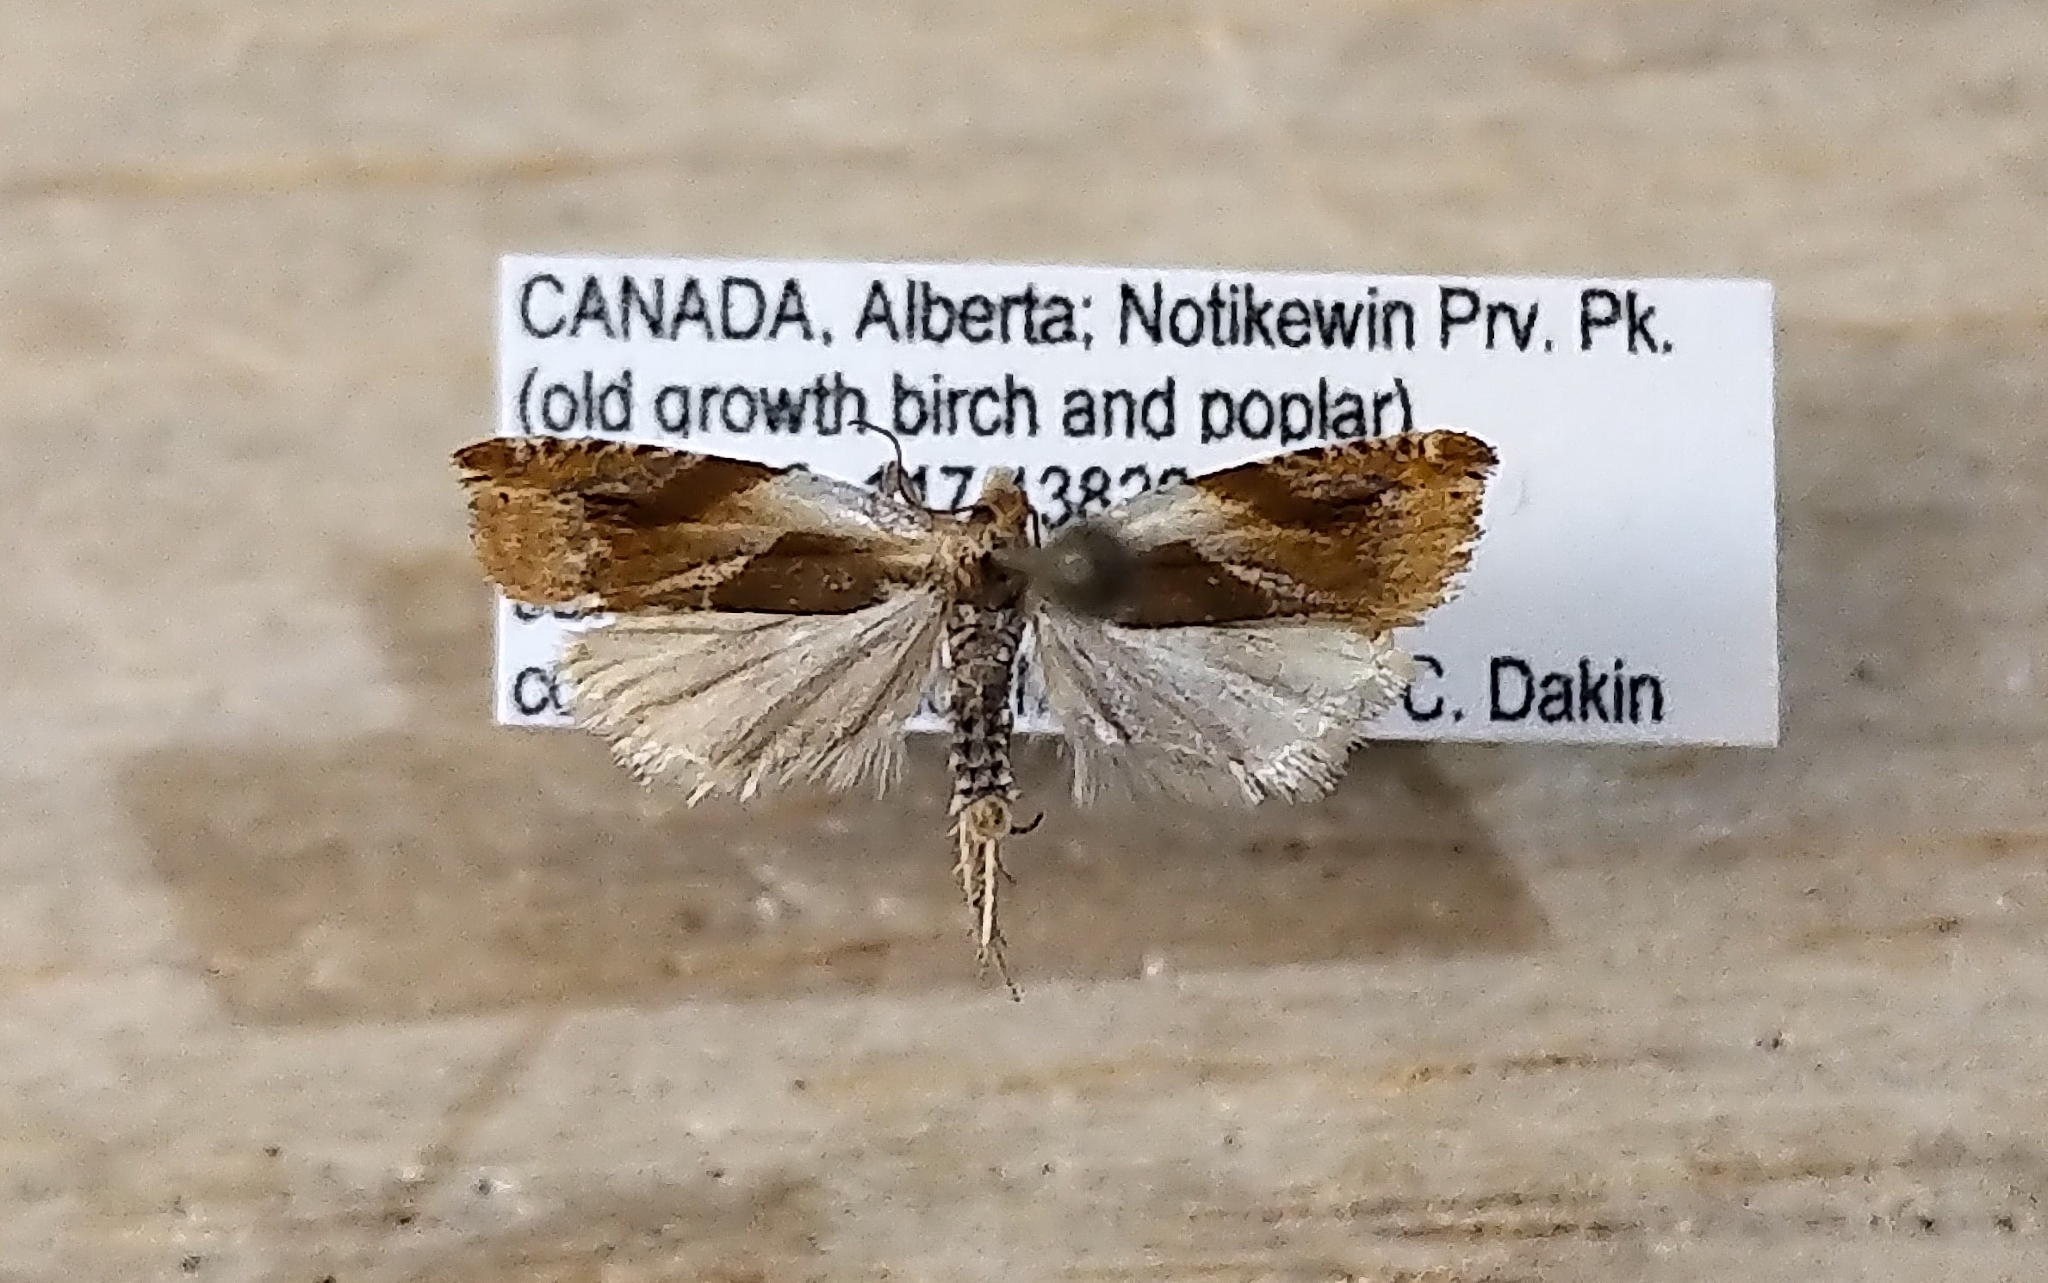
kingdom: Animalia
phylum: Arthropoda
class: Insecta
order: Lepidoptera
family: Tortricidae
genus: Ancylis
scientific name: Ancylis mira
